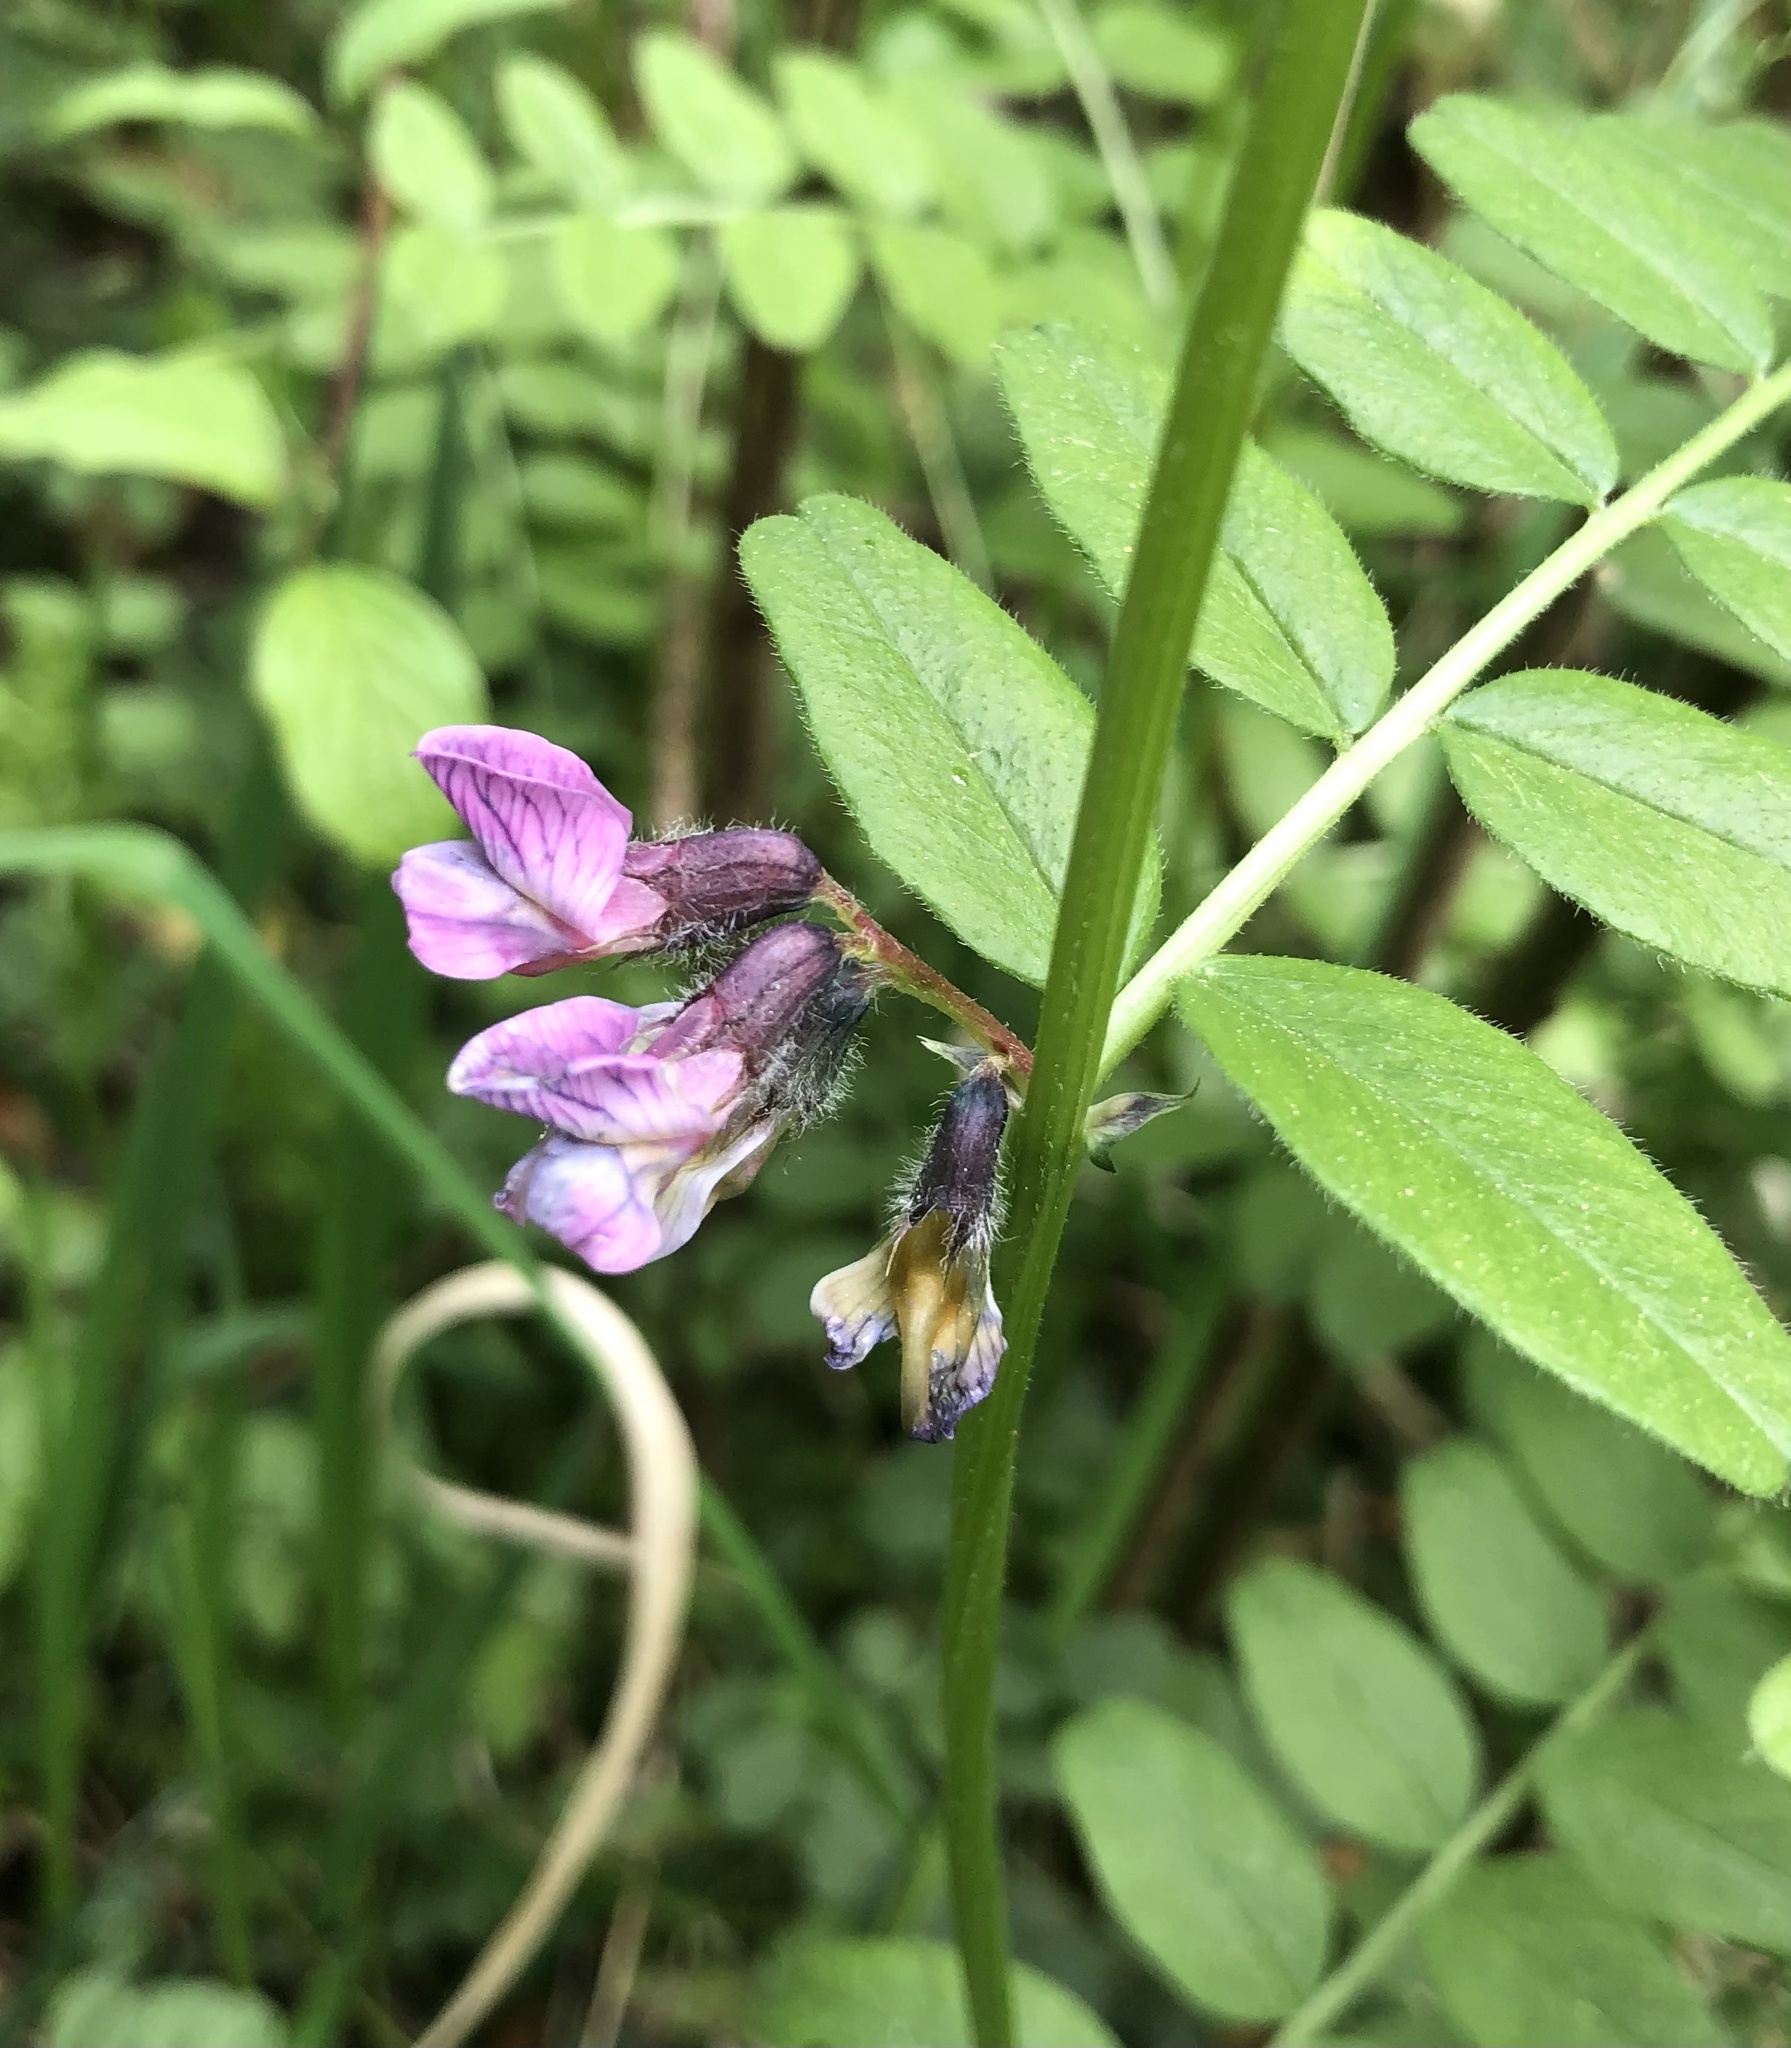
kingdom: Plantae
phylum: Tracheophyta
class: Magnoliopsida
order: Fabales
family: Fabaceae
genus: Vicia
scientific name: Vicia sepium
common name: Bush vetch
